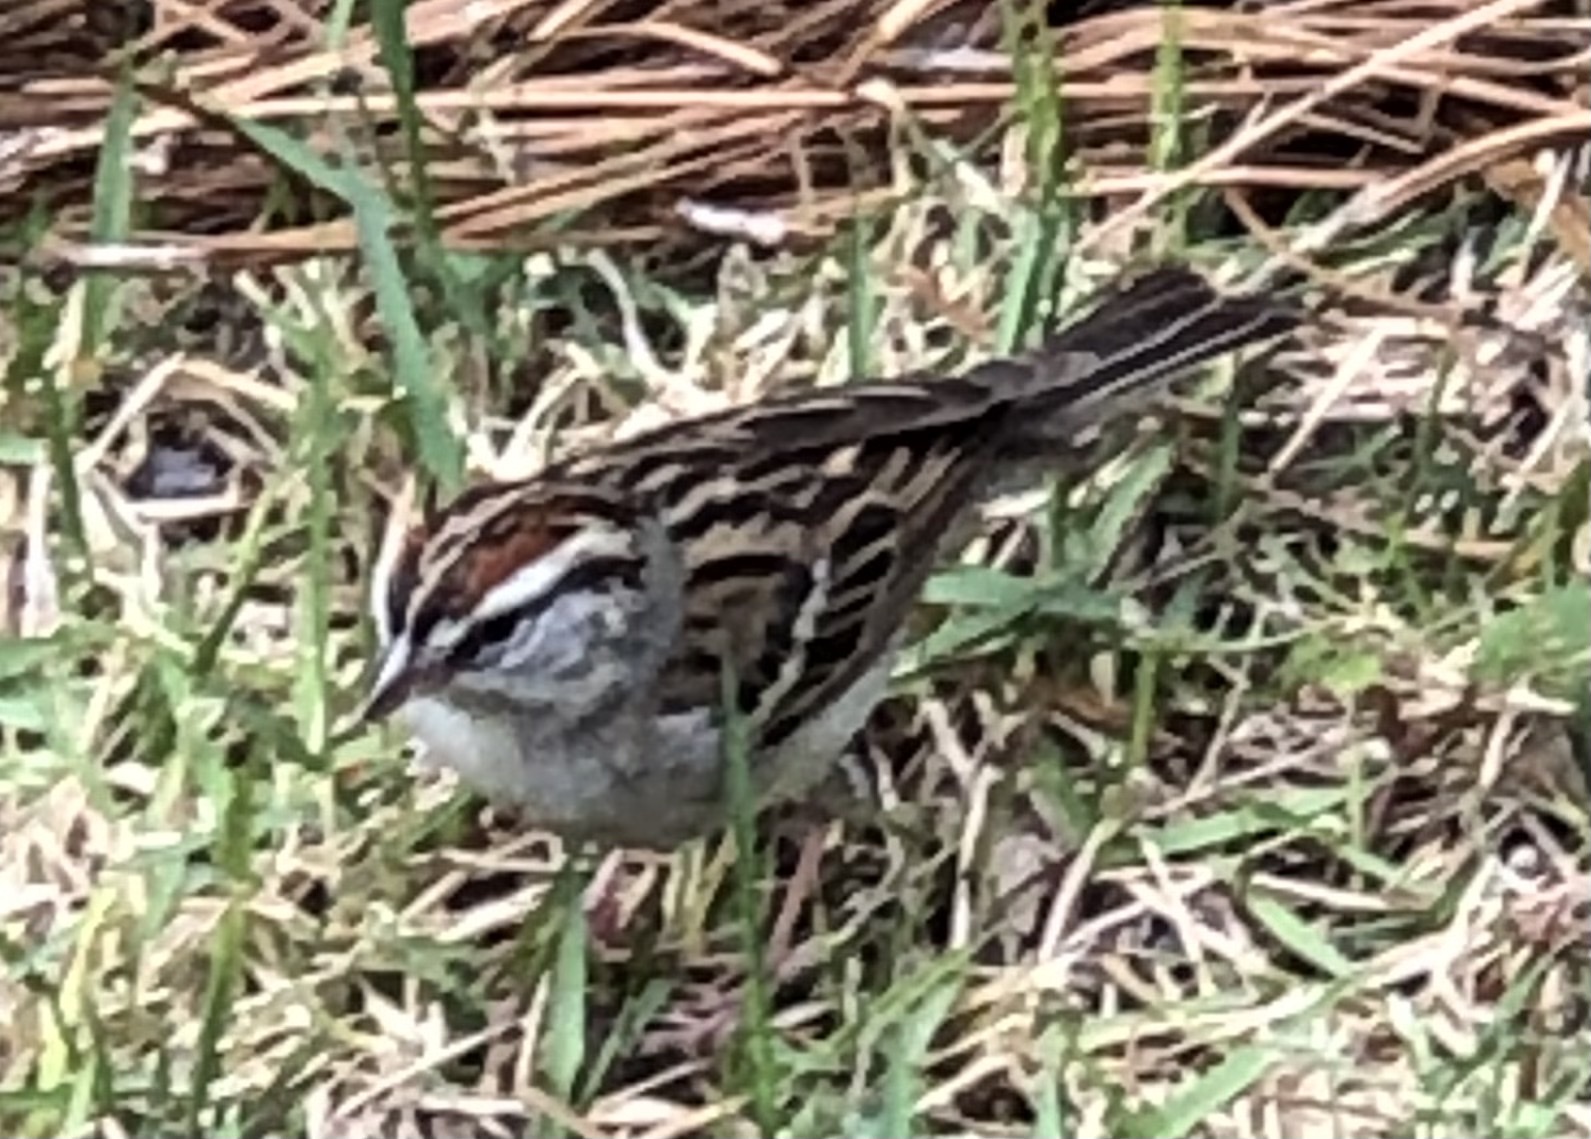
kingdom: Animalia
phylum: Chordata
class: Aves
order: Passeriformes
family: Passerellidae
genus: Spizella
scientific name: Spizella passerina
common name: Chipping sparrow
